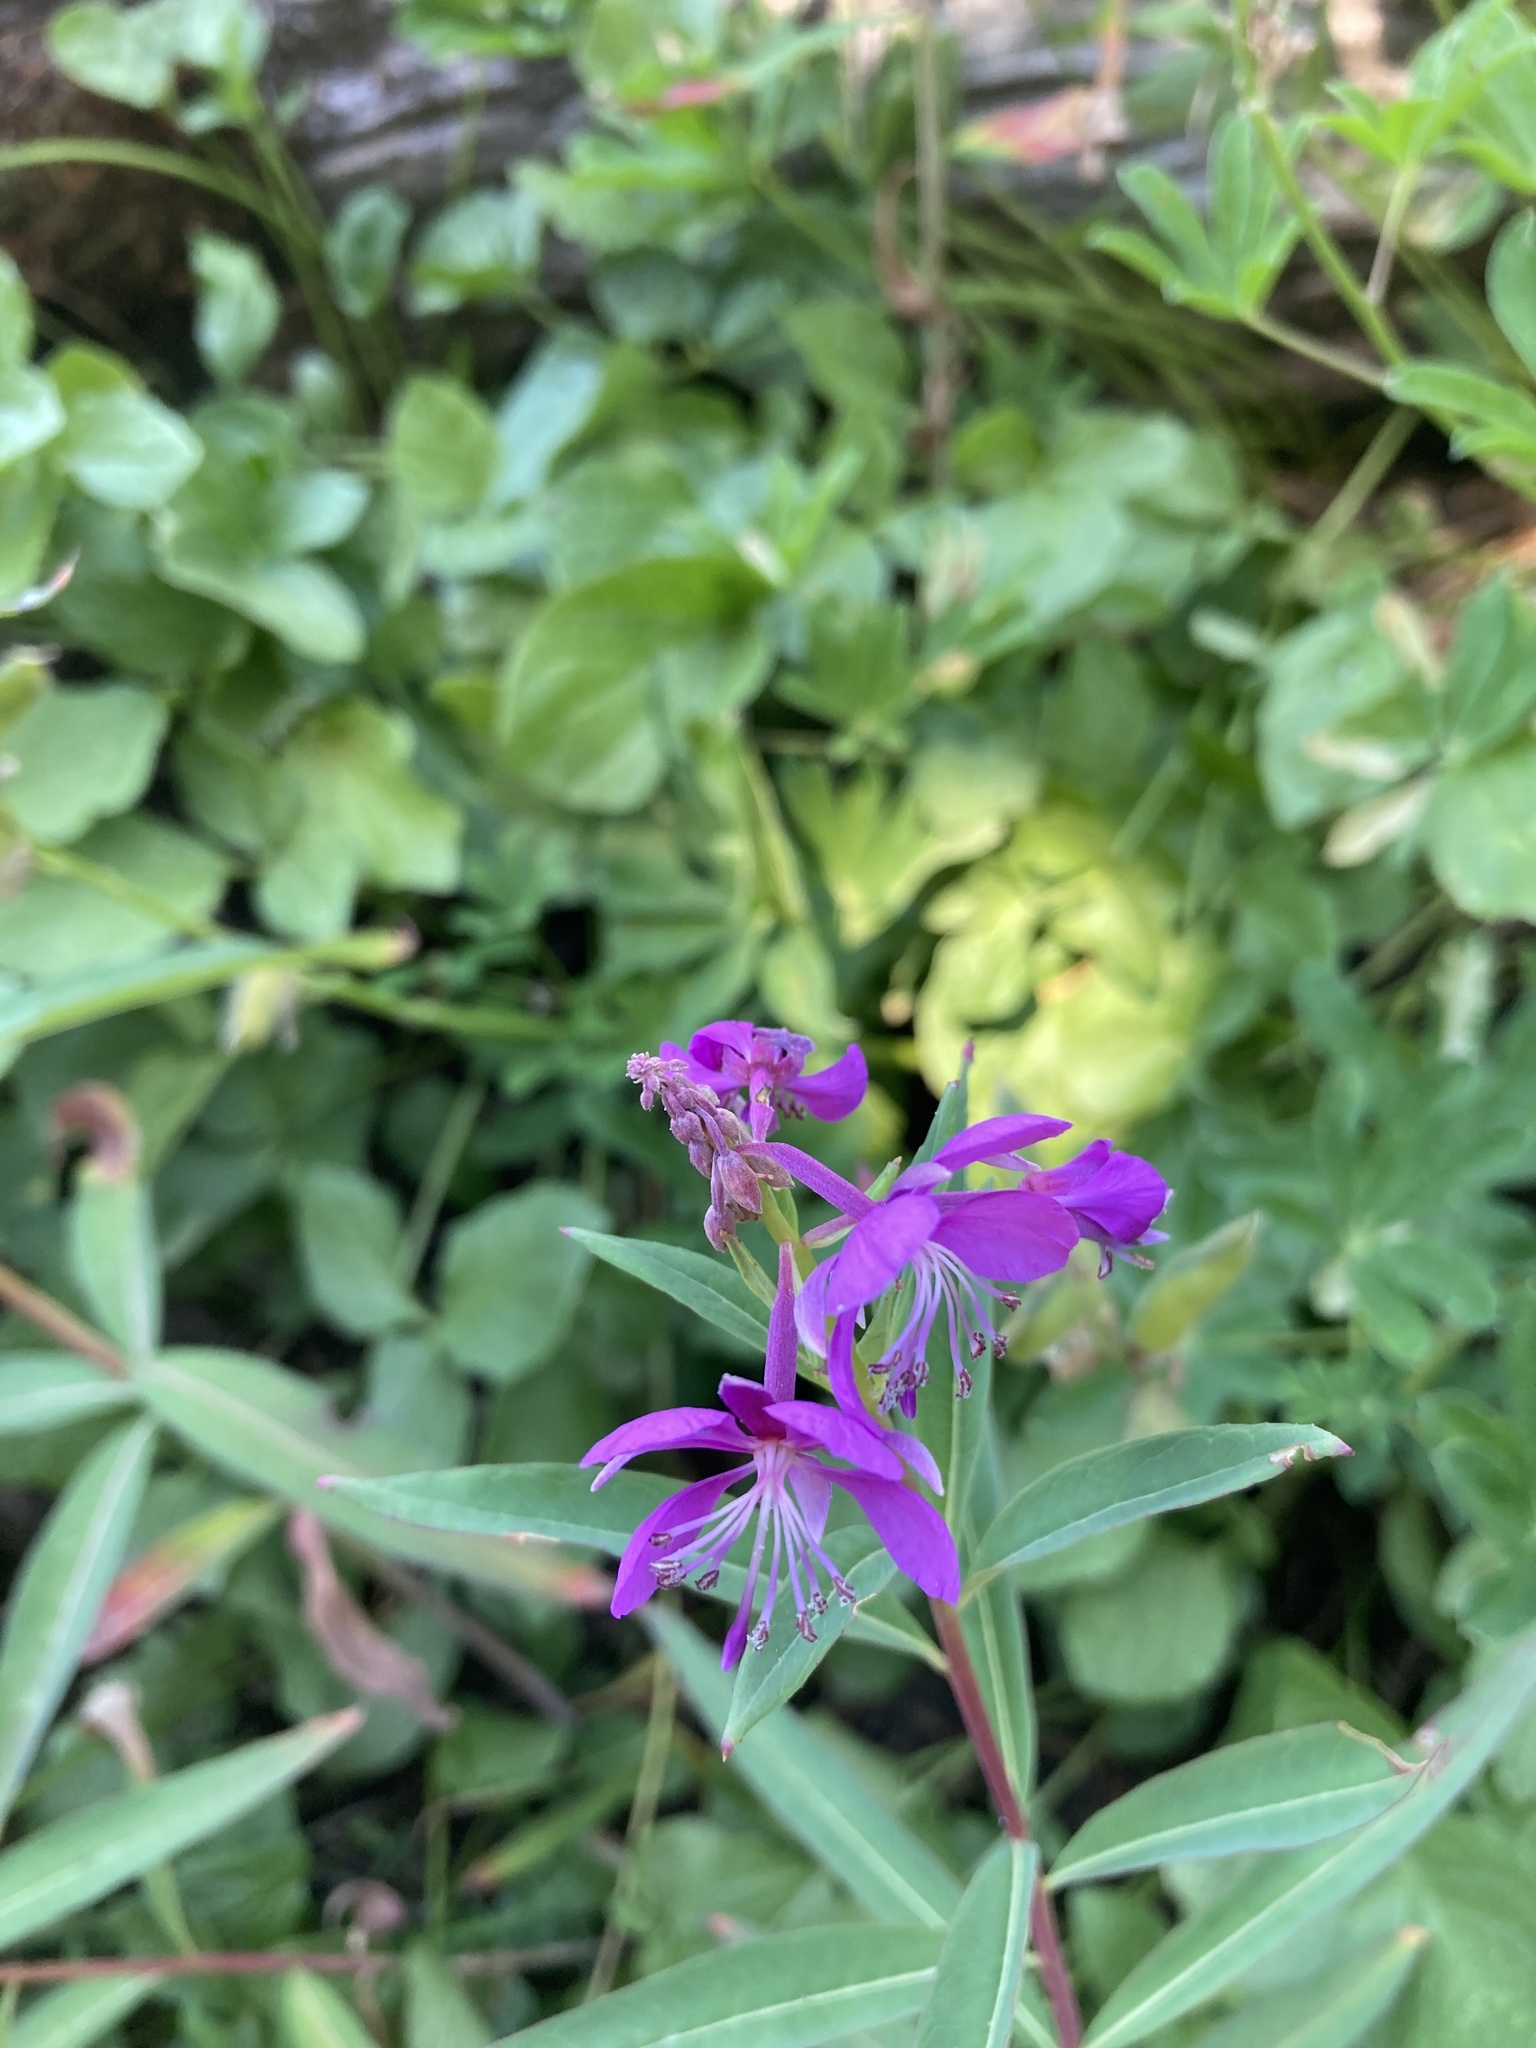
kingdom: Plantae
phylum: Tracheophyta
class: Magnoliopsida
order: Myrtales
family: Onagraceae
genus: Chamaenerion
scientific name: Chamaenerion angustifolium
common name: Fireweed
